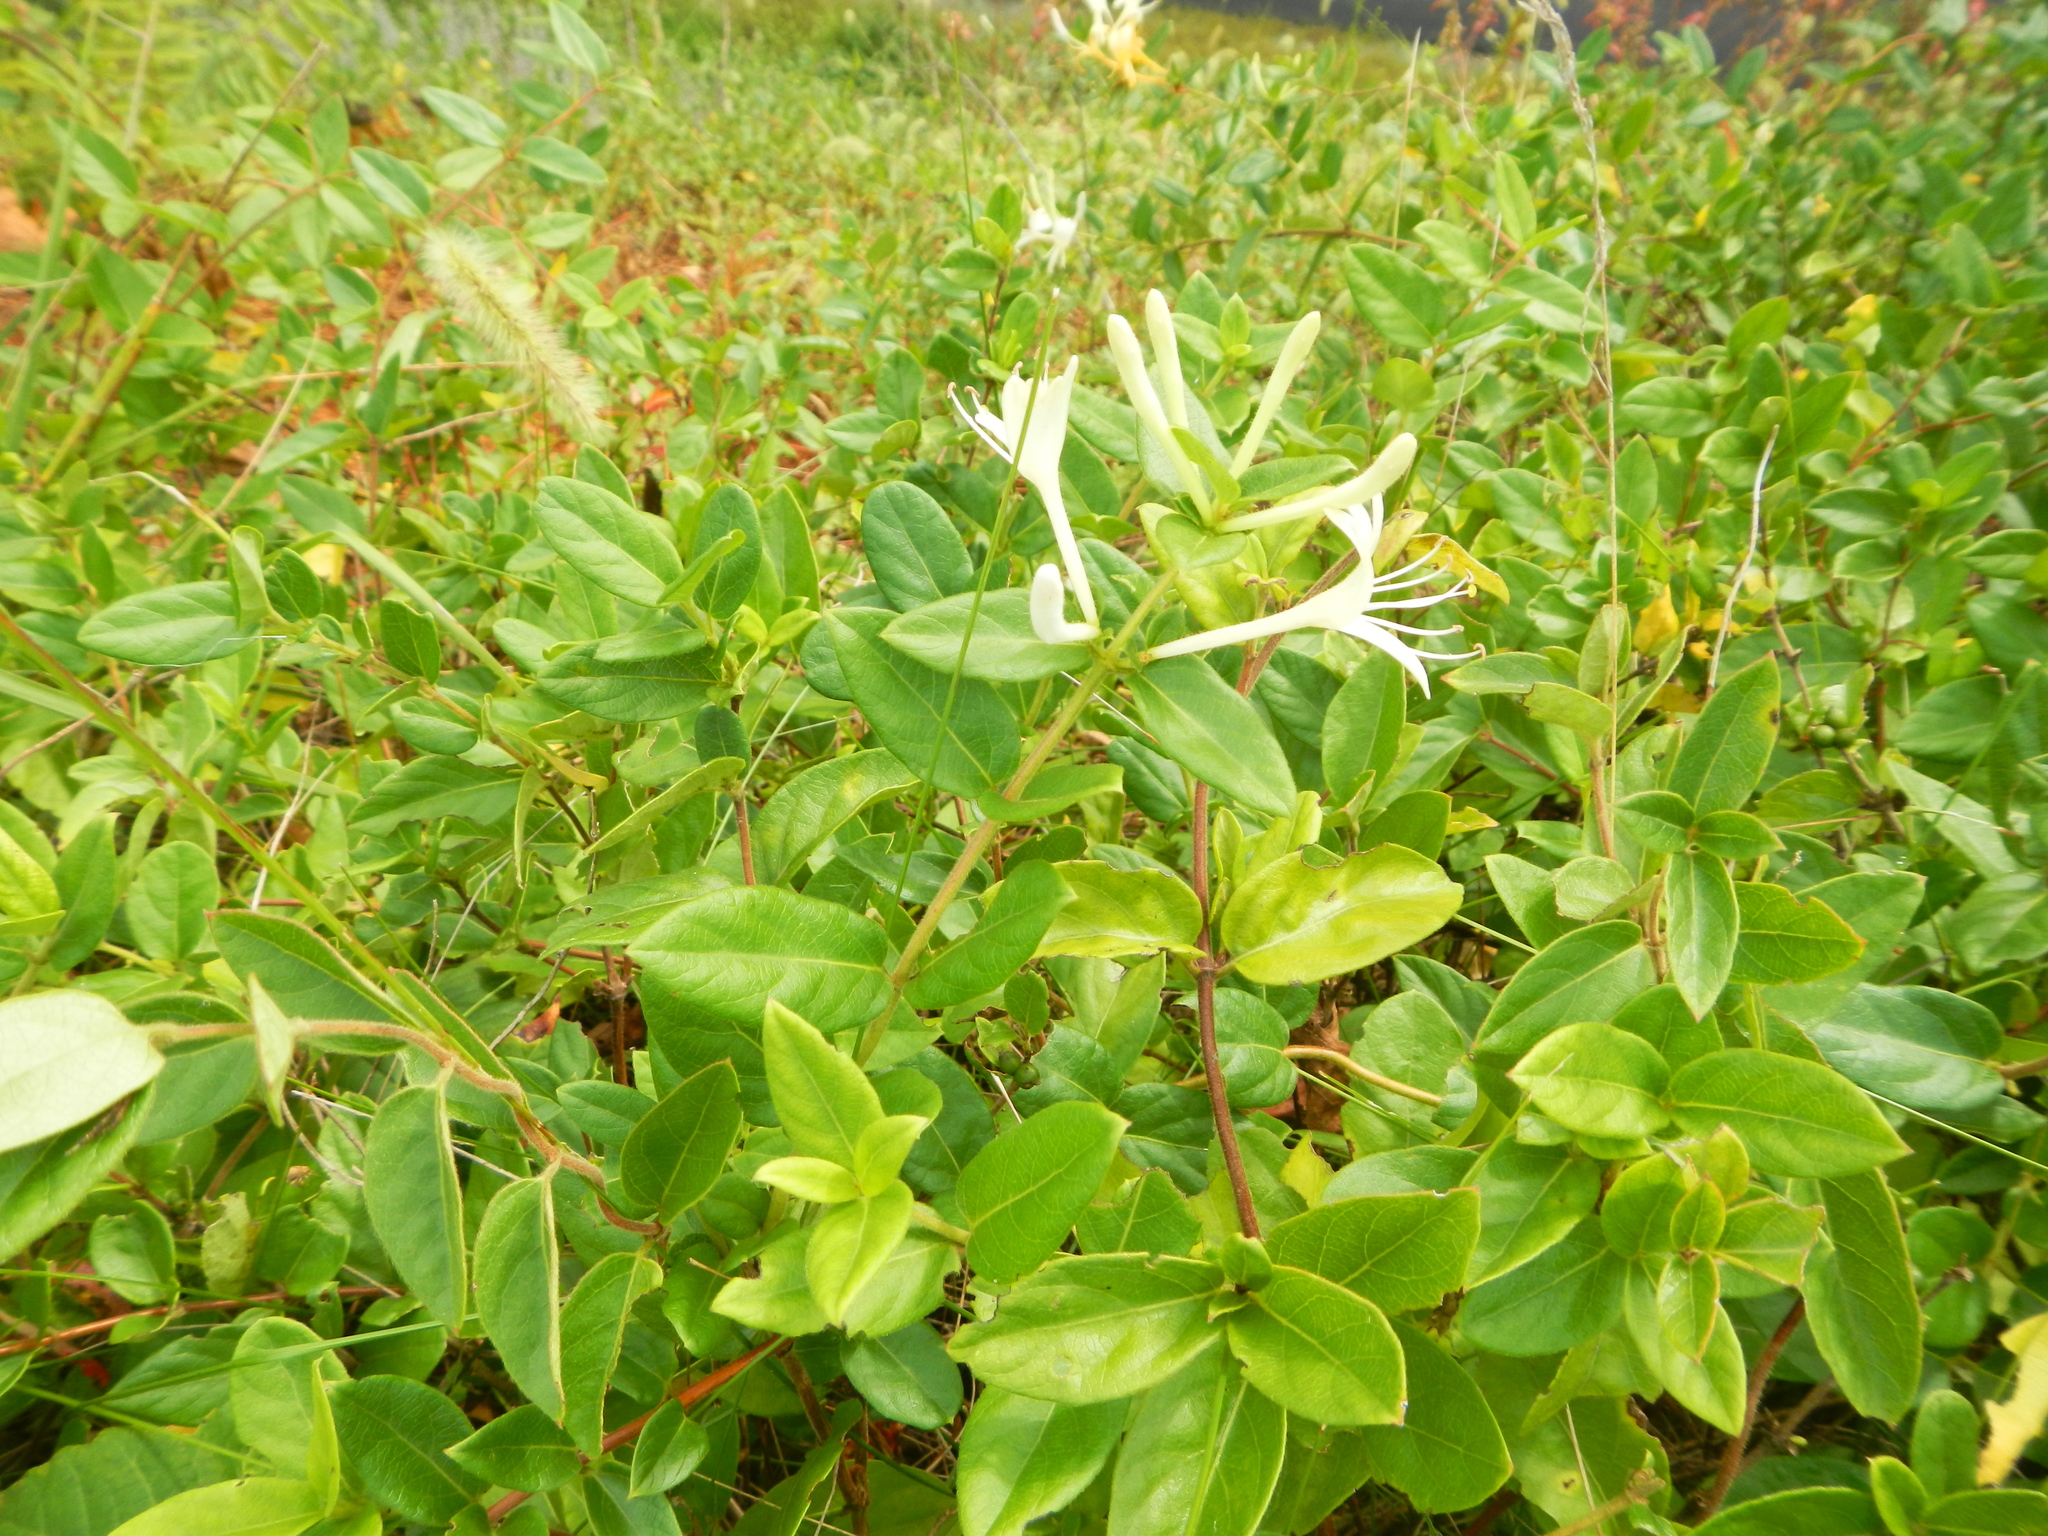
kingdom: Plantae
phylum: Tracheophyta
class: Magnoliopsida
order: Dipsacales
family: Caprifoliaceae
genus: Lonicera
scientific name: Lonicera japonica
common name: Japanese honeysuckle
